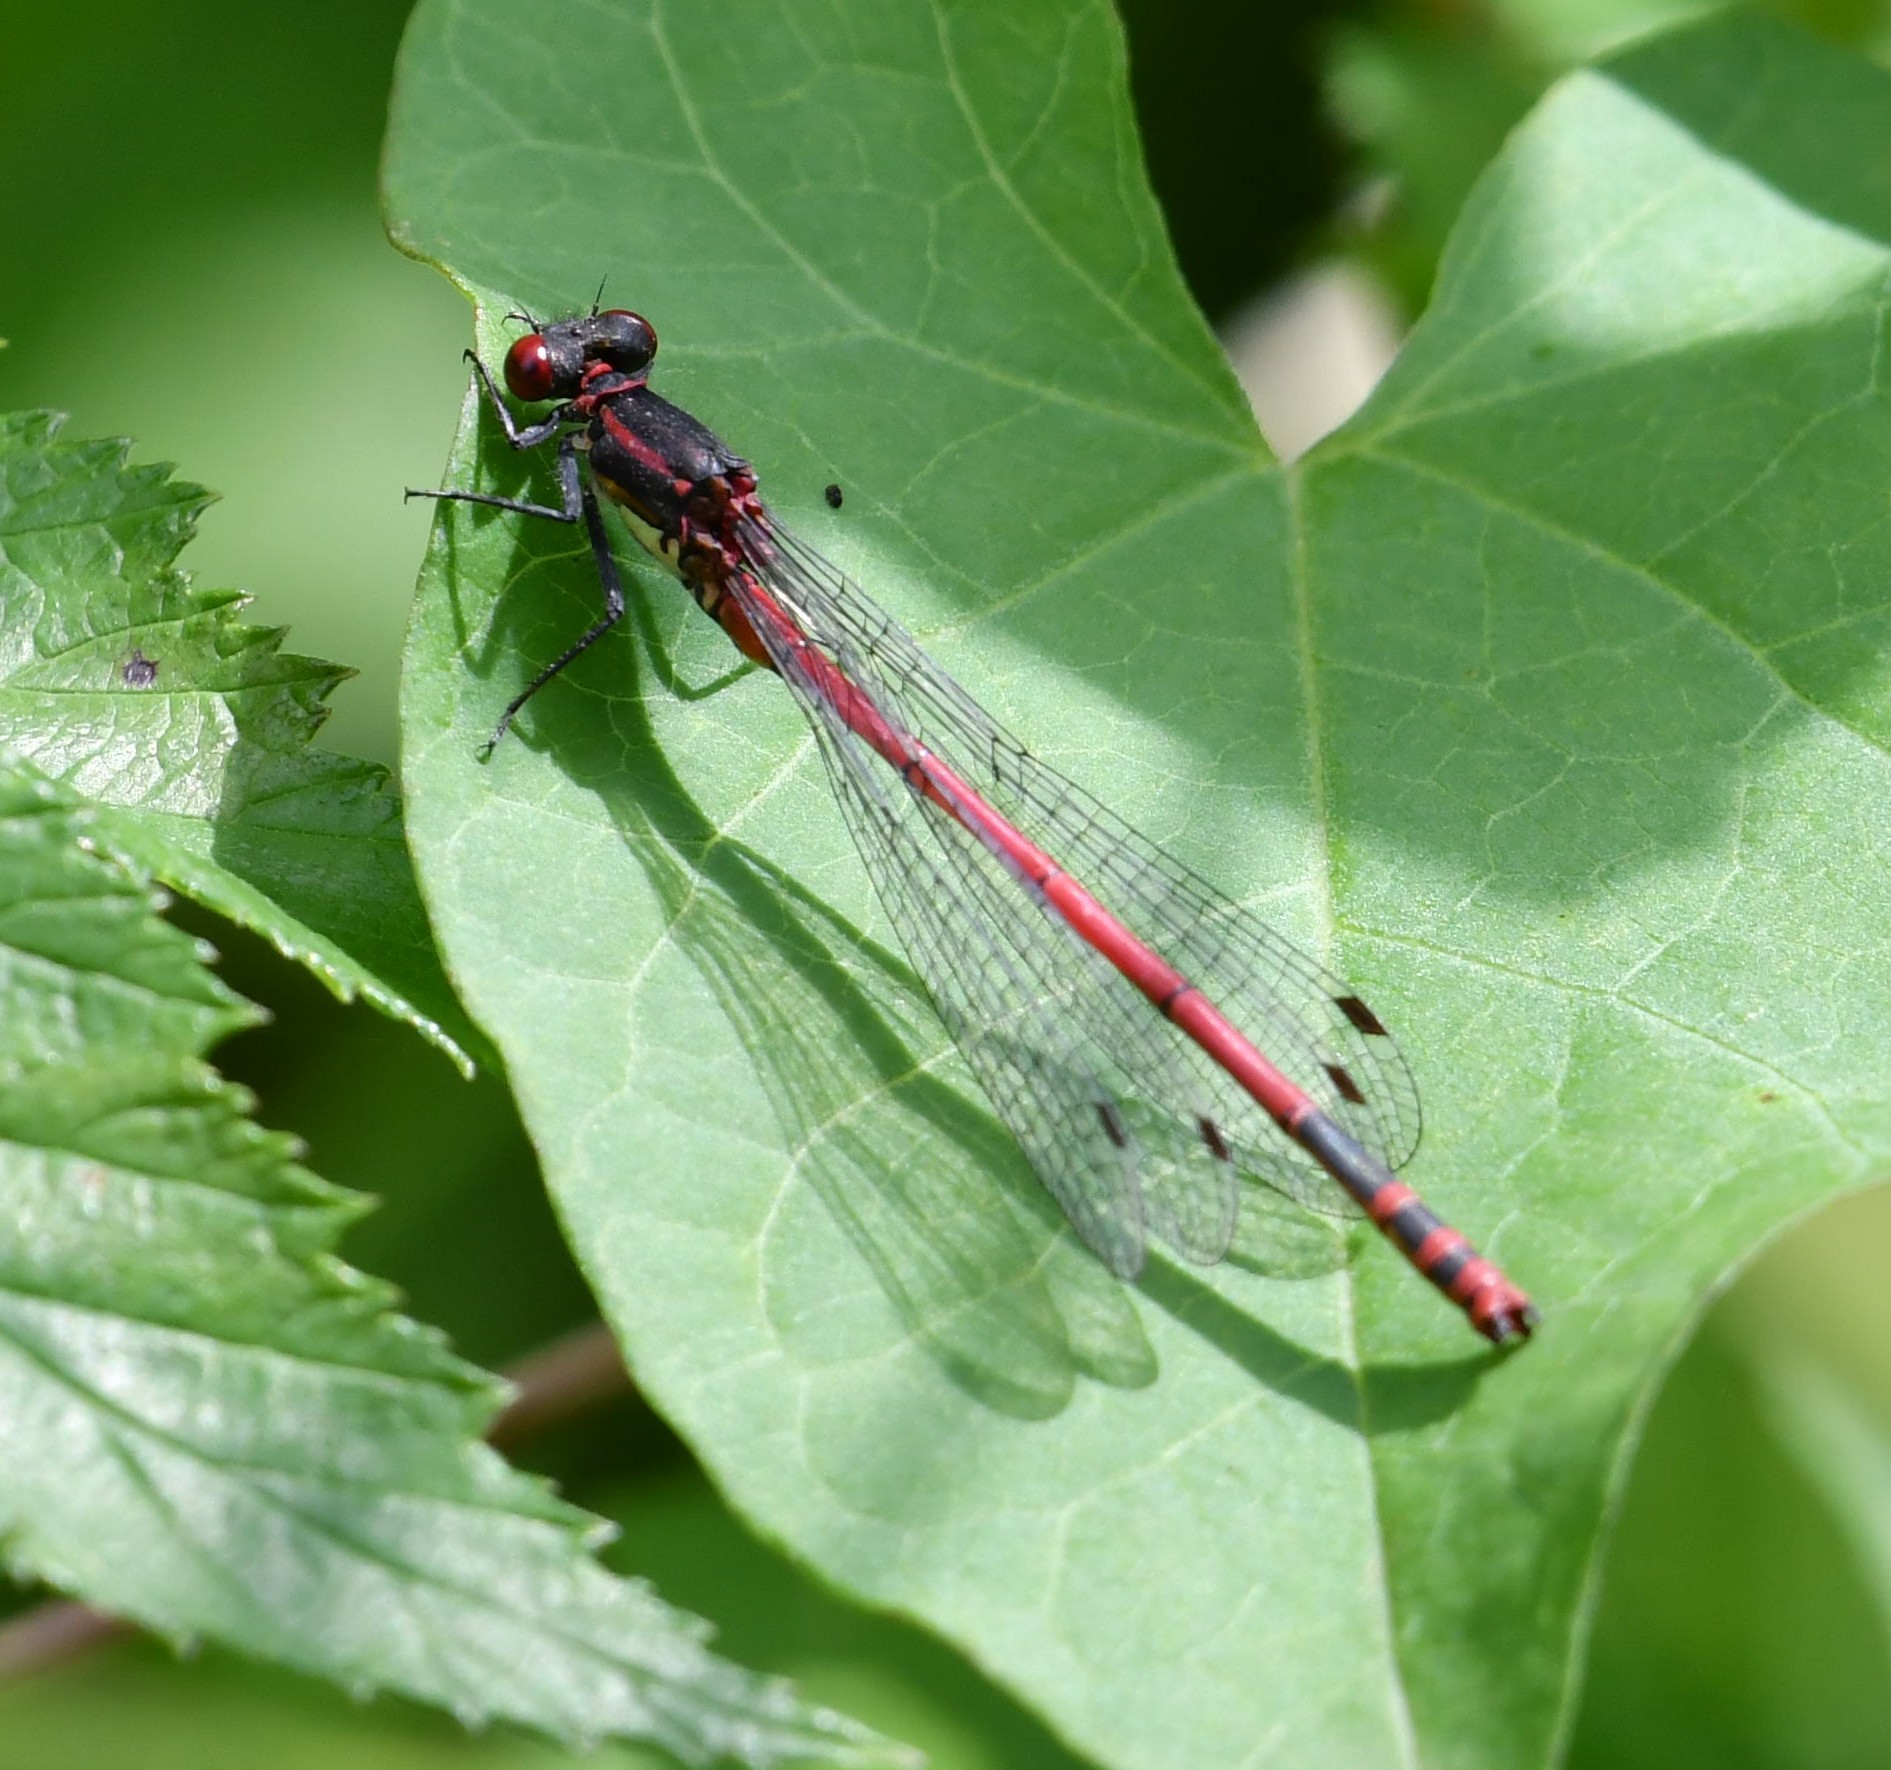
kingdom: Animalia
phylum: Arthropoda
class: Insecta
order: Odonata
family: Coenagrionidae
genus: Pyrrhosoma
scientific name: Pyrrhosoma nymphula
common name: Large red damsel
